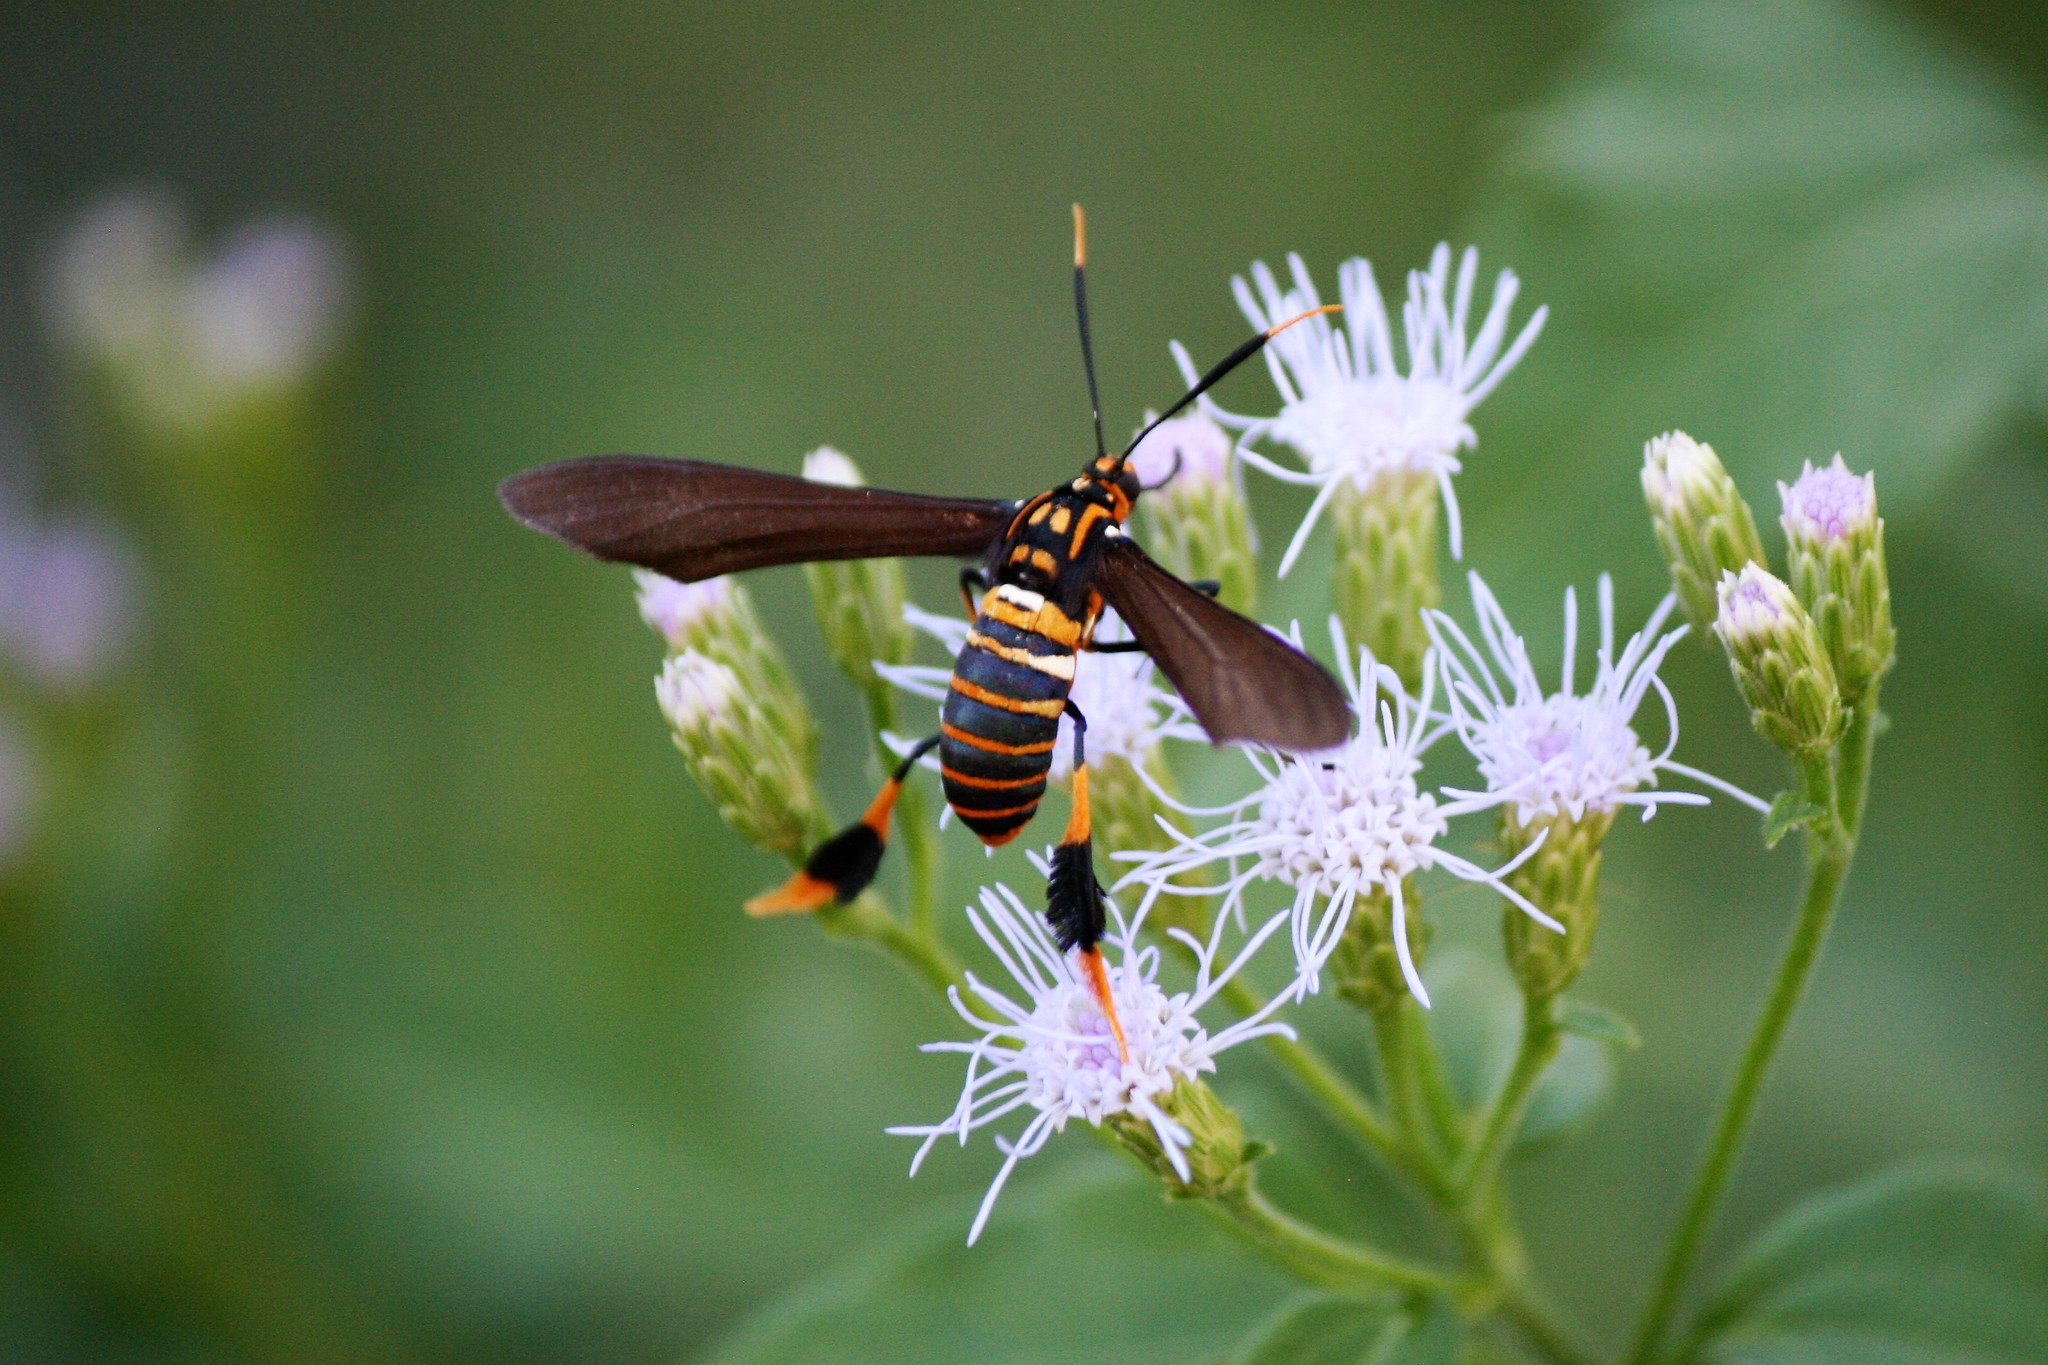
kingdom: Animalia
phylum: Arthropoda
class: Insecta
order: Lepidoptera
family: Erebidae
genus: Horama
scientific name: Horama panthalon
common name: Texas wasp moth
